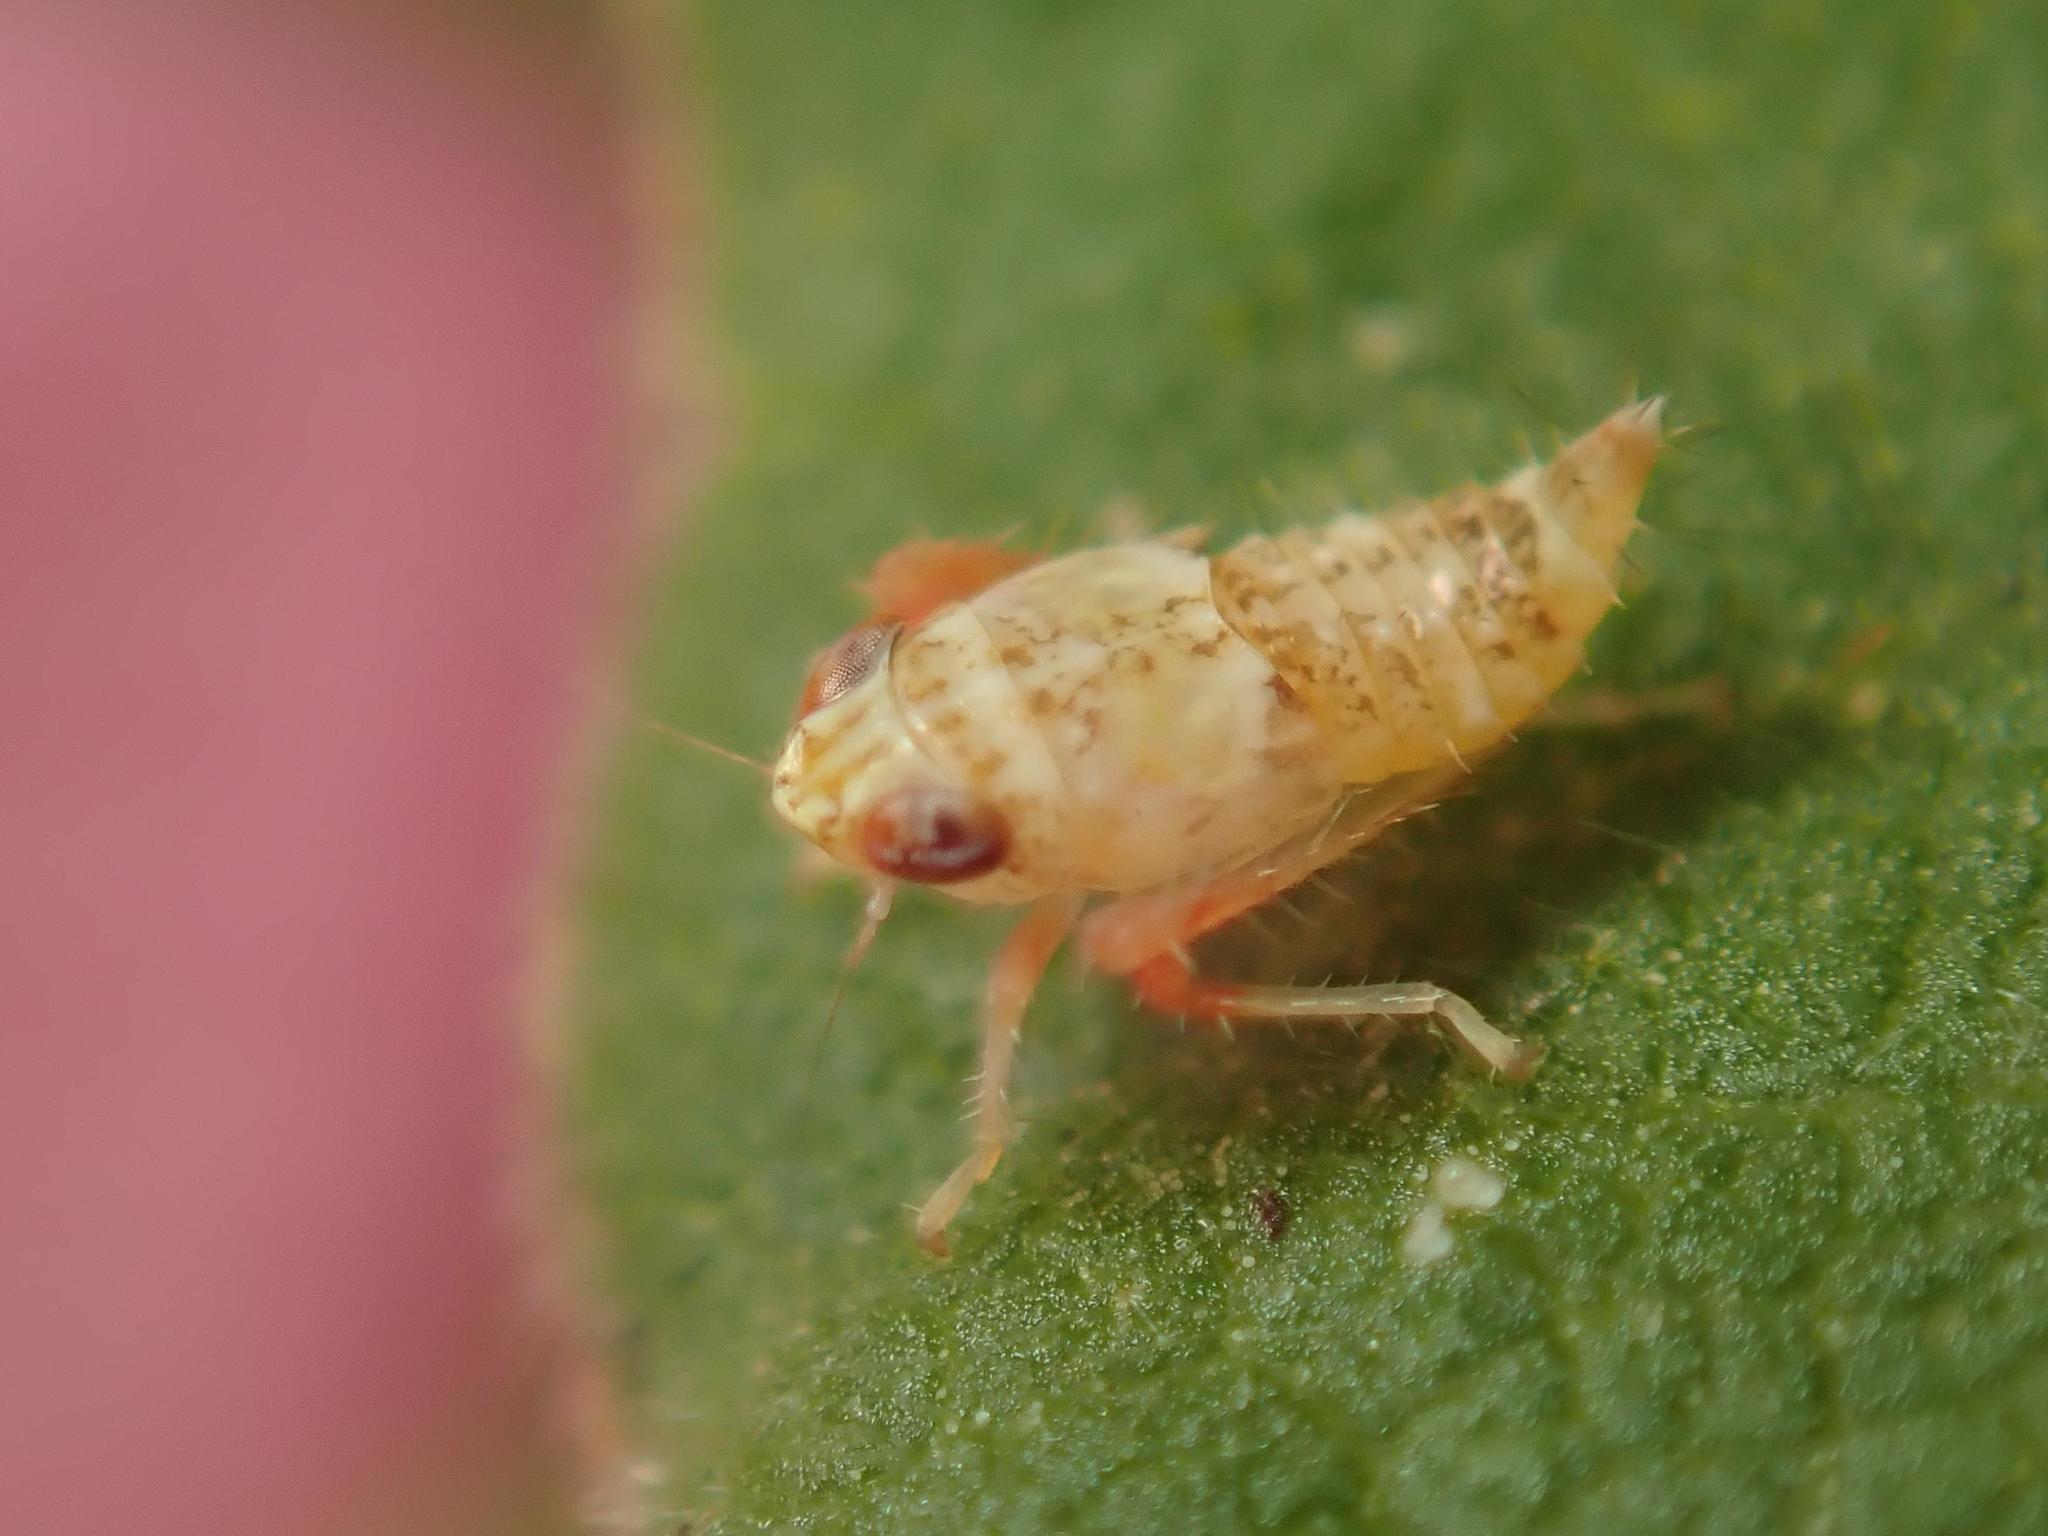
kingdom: Animalia
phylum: Arthropoda
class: Insecta
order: Hemiptera
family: Cicadellidae
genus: Orientus
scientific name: Orientus ishidae
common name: Japanese leafhopper
